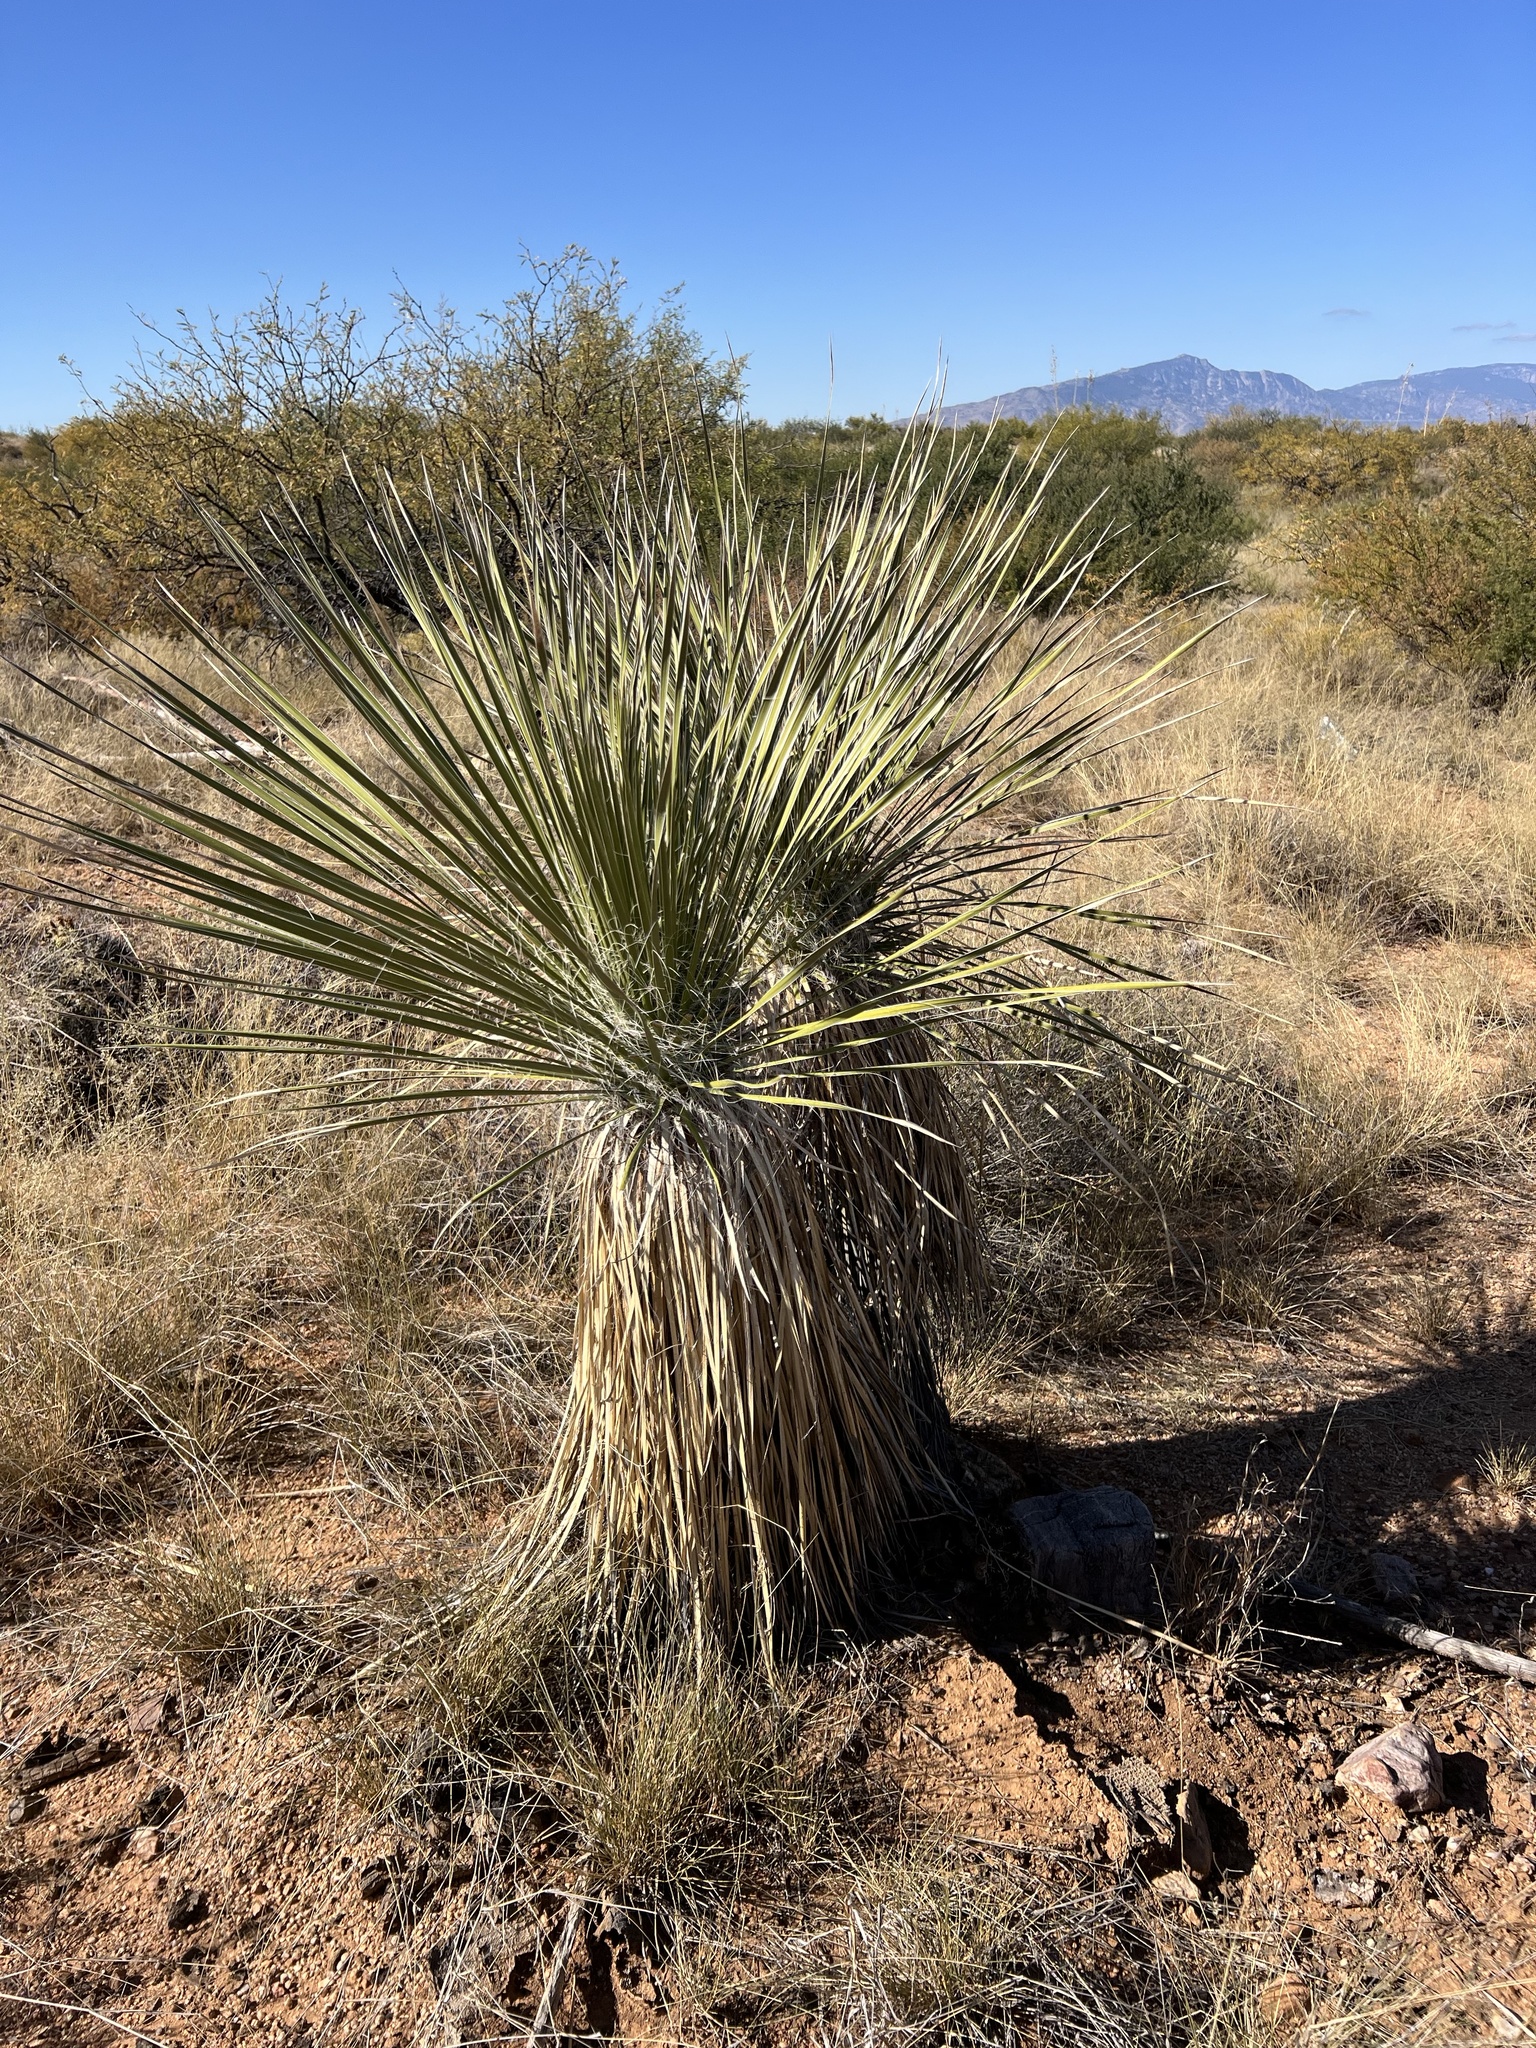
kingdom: Plantae
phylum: Tracheophyta
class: Liliopsida
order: Asparagales
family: Asparagaceae
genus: Yucca
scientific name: Yucca elata
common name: Palmella
